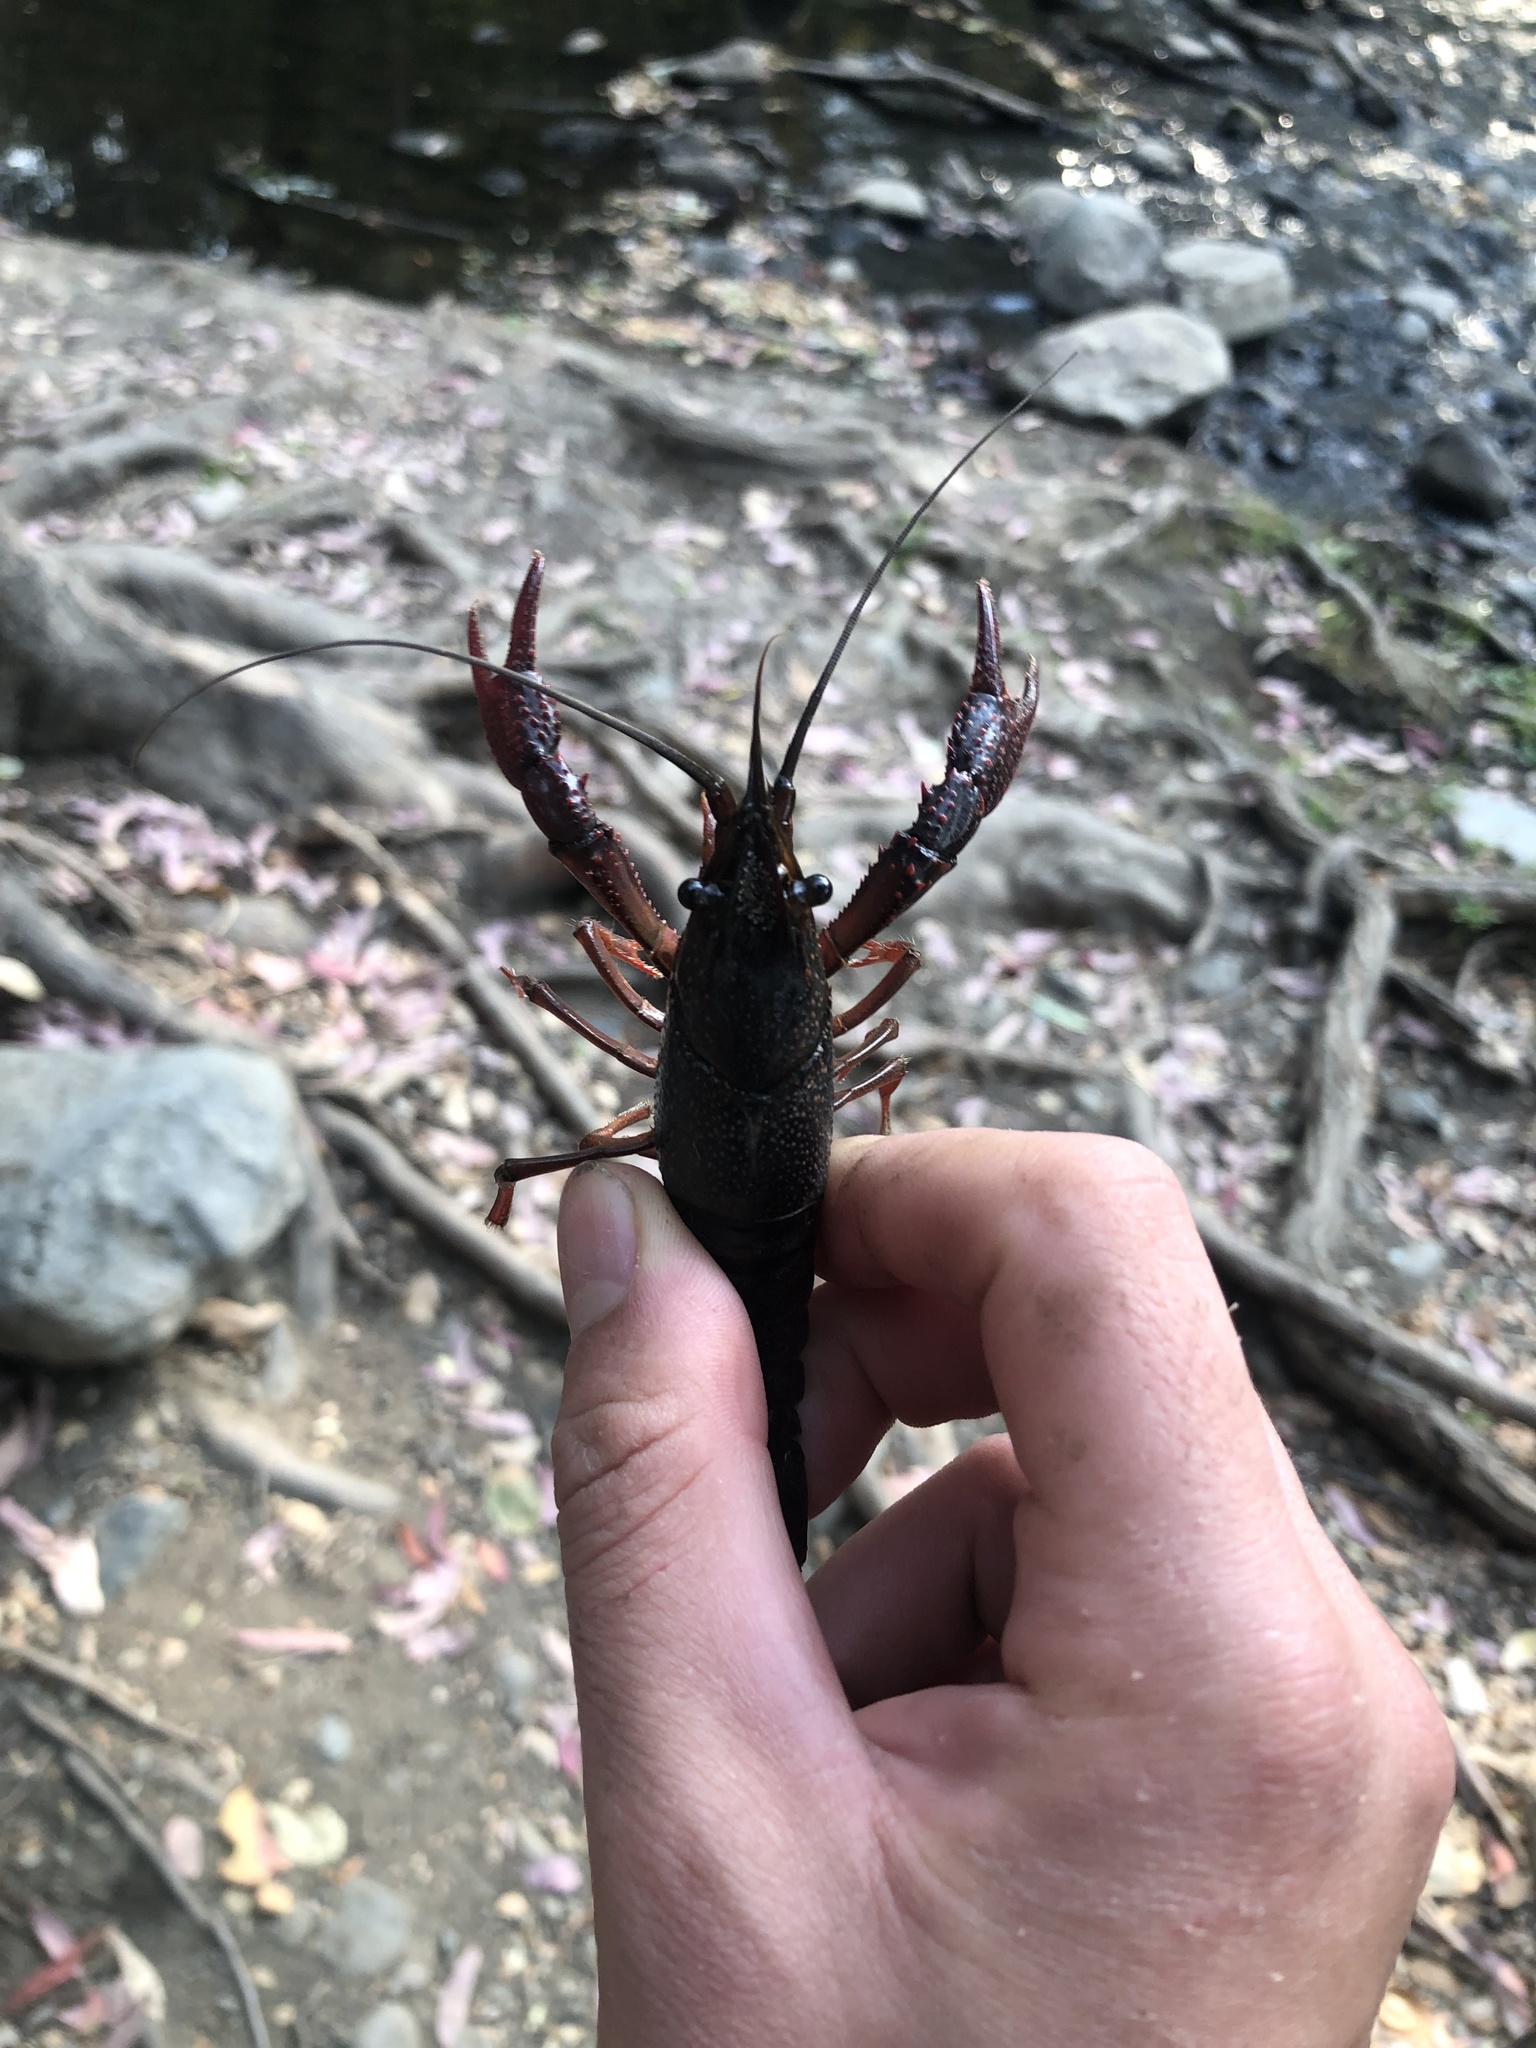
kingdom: Animalia
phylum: Arthropoda
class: Malacostraca
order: Decapoda
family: Cambaridae
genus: Procambarus
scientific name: Procambarus clarkii
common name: Red swamp crayfish
